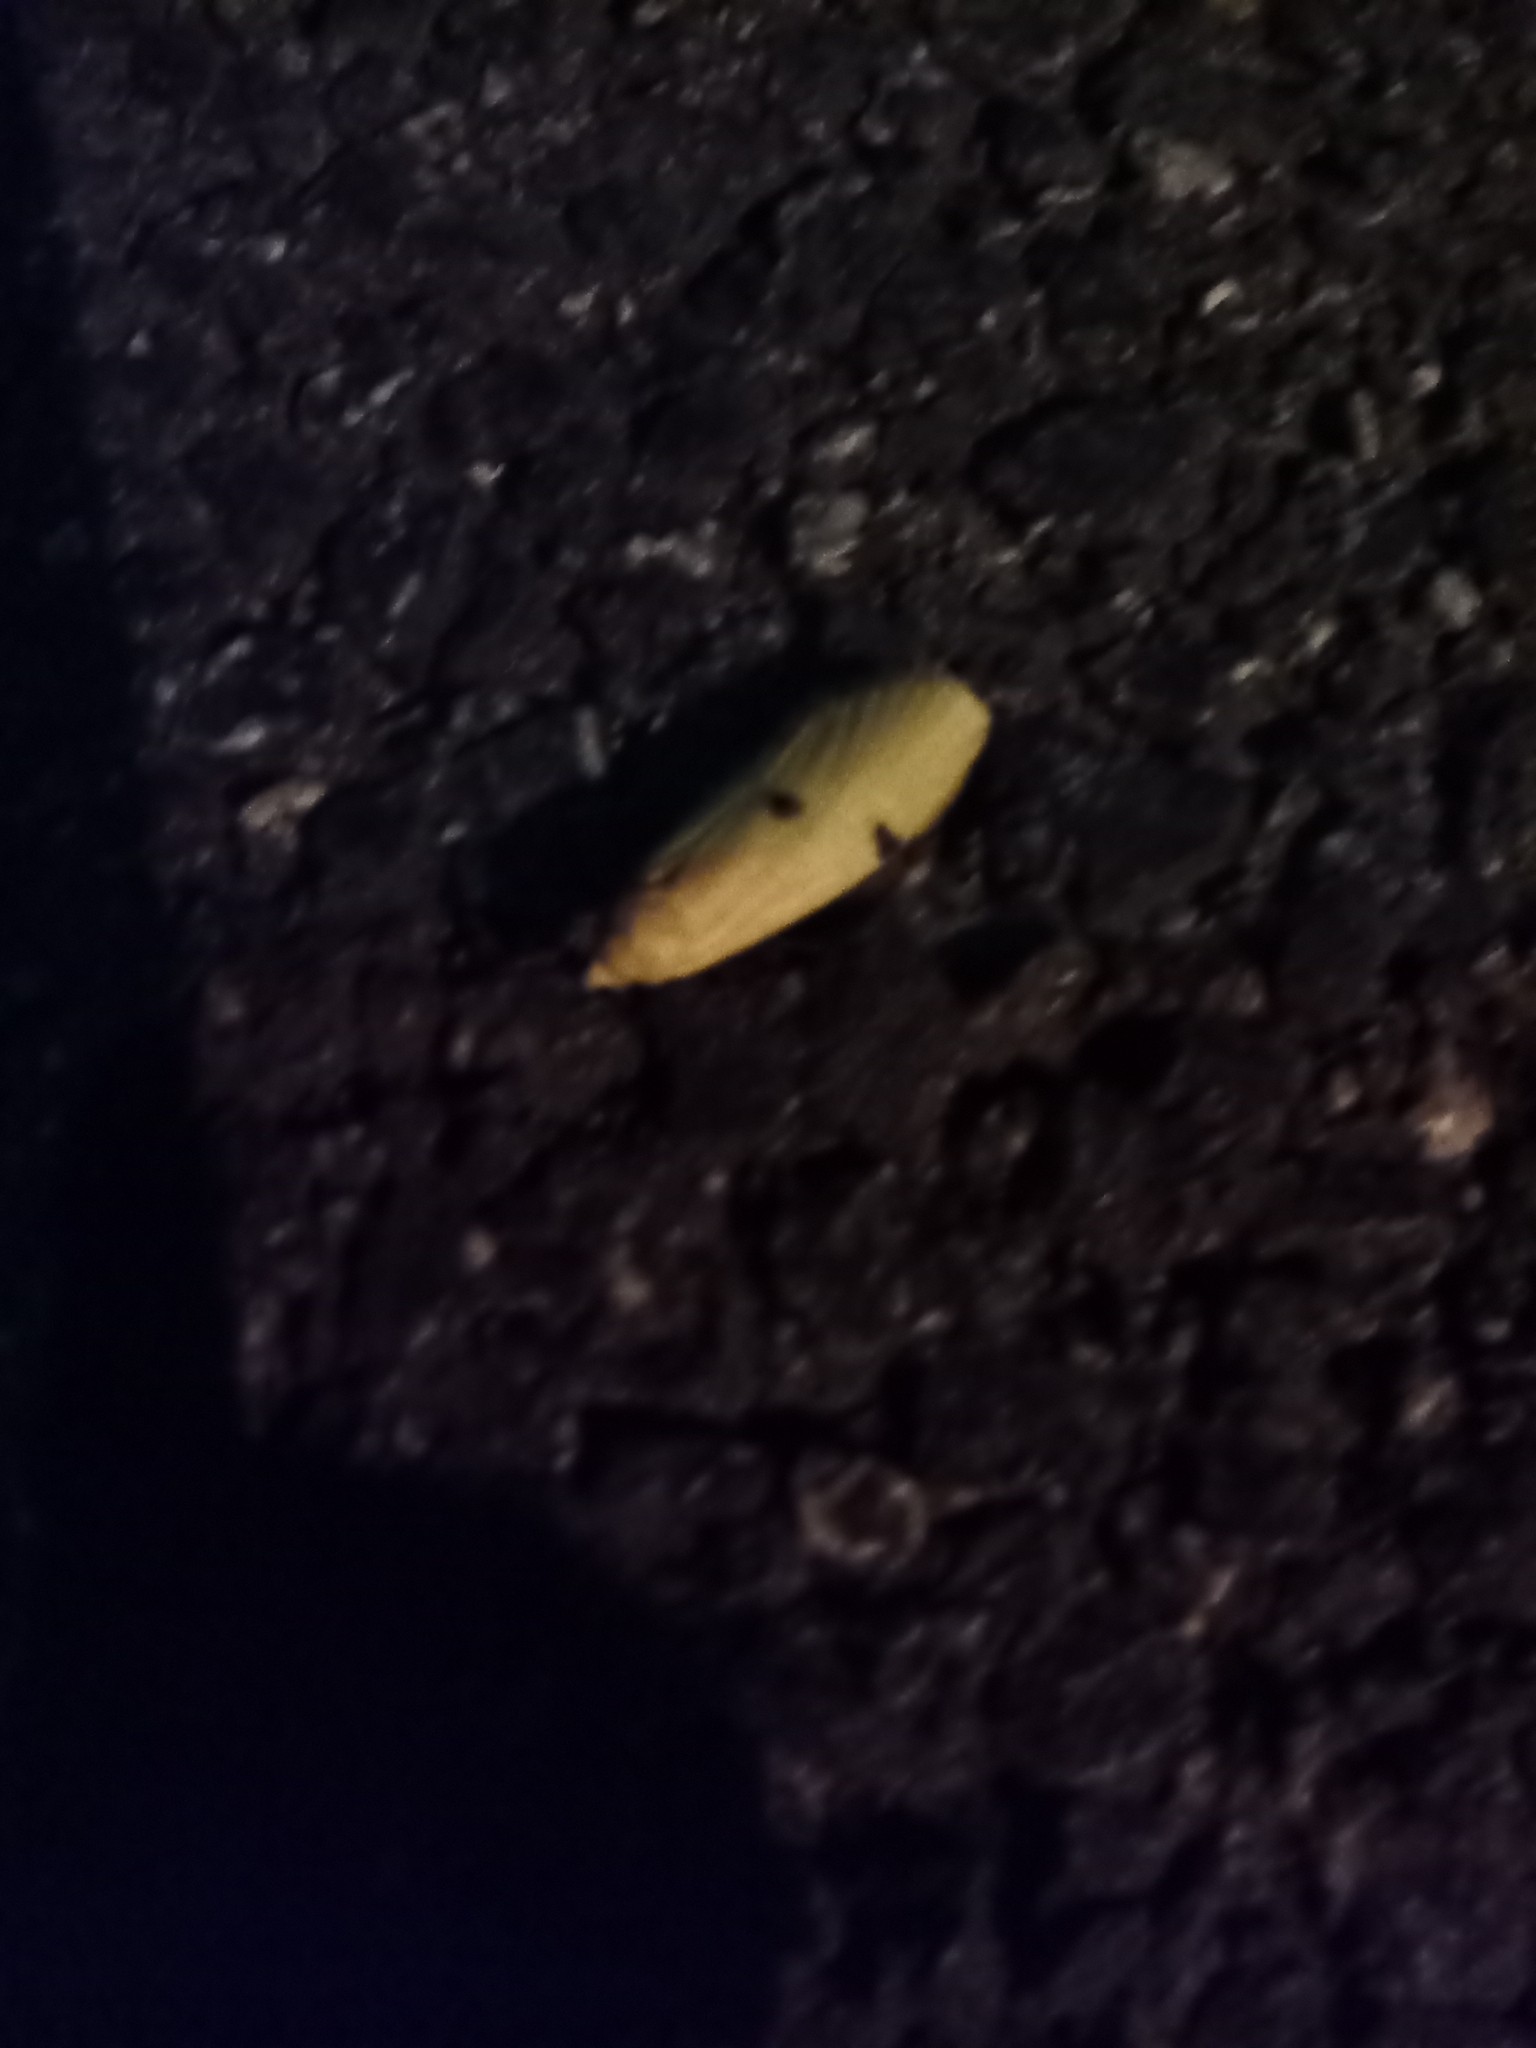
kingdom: Animalia
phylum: Arthropoda
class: Insecta
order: Lepidoptera
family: Erebidae
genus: Lithosia
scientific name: Lithosia quadra
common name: Four-spotted footman
